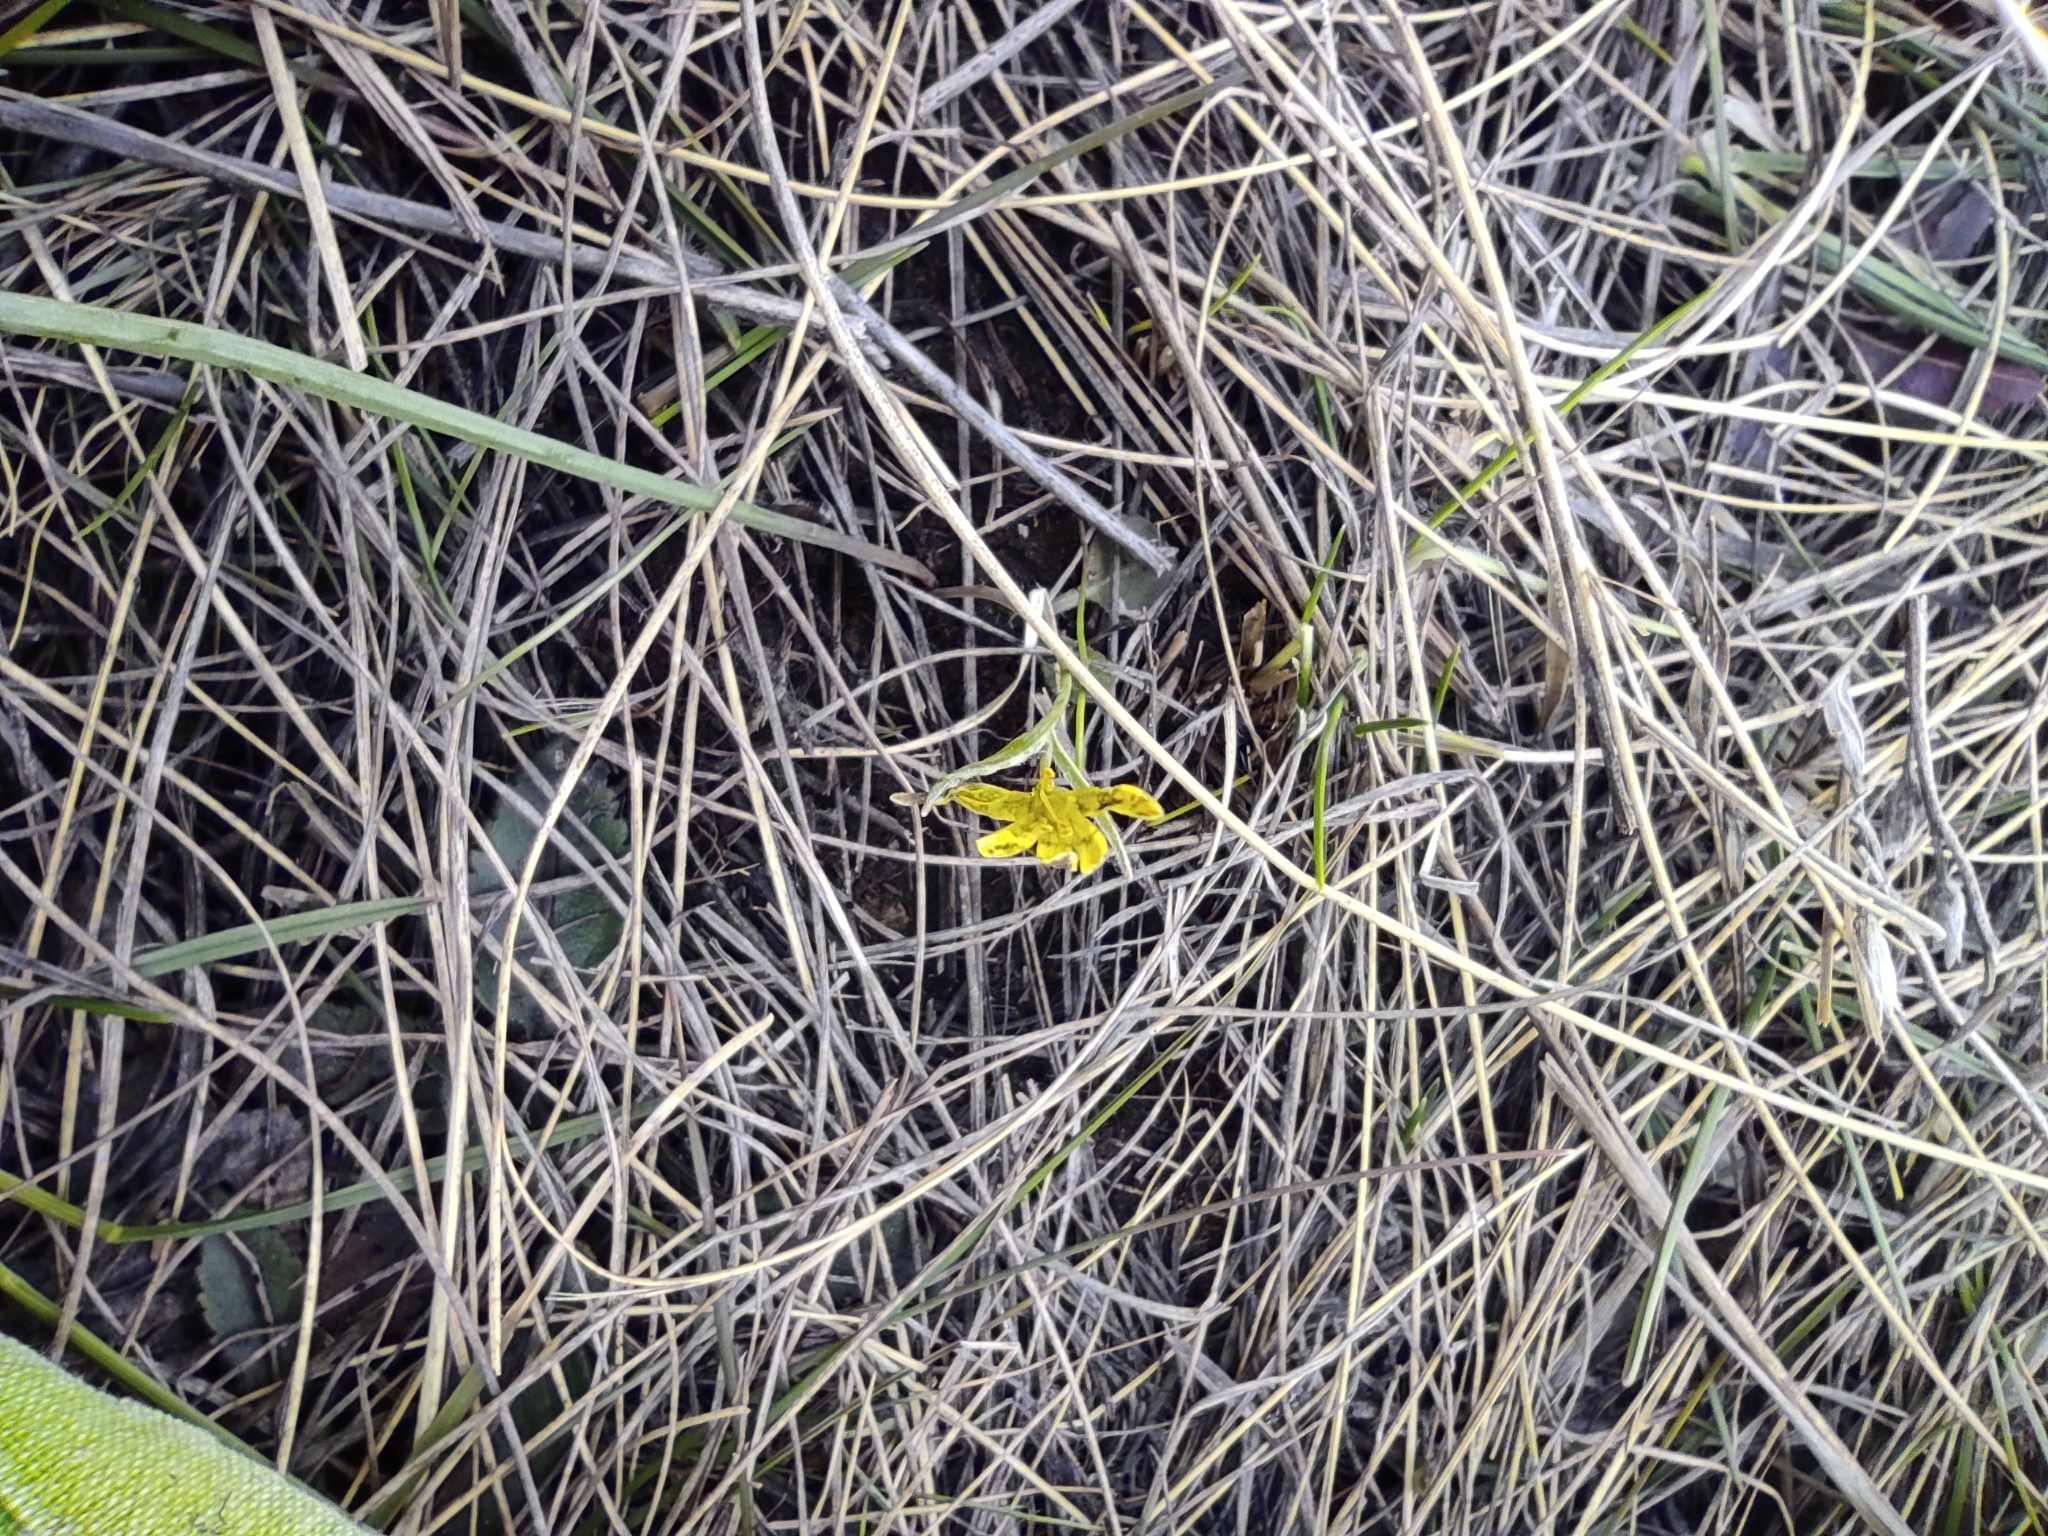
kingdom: Plantae
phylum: Tracheophyta
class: Liliopsida
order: Liliales
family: Liliaceae
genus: Gagea
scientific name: Gagea fedtschenkoana
